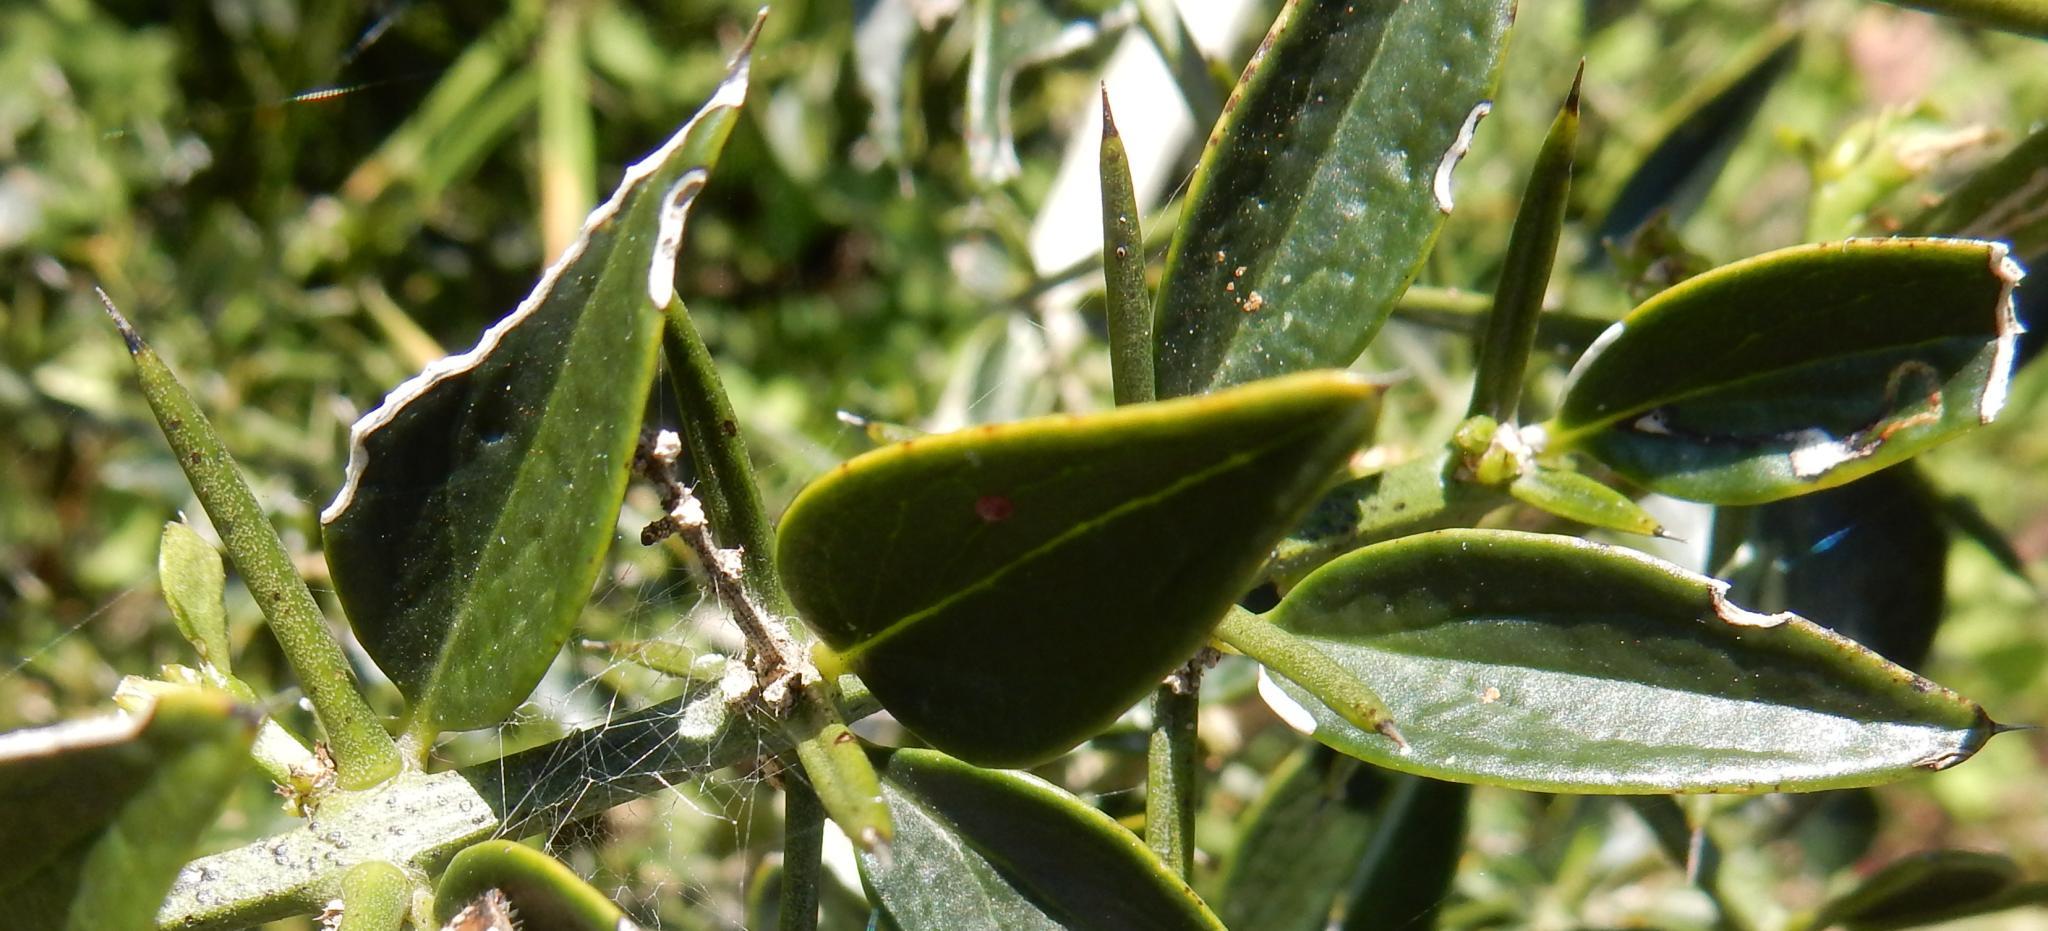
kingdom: Plantae
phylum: Tracheophyta
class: Magnoliopsida
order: Brassicales
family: Salvadoraceae
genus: Azima
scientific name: Azima tetracantha
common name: Needle bush
